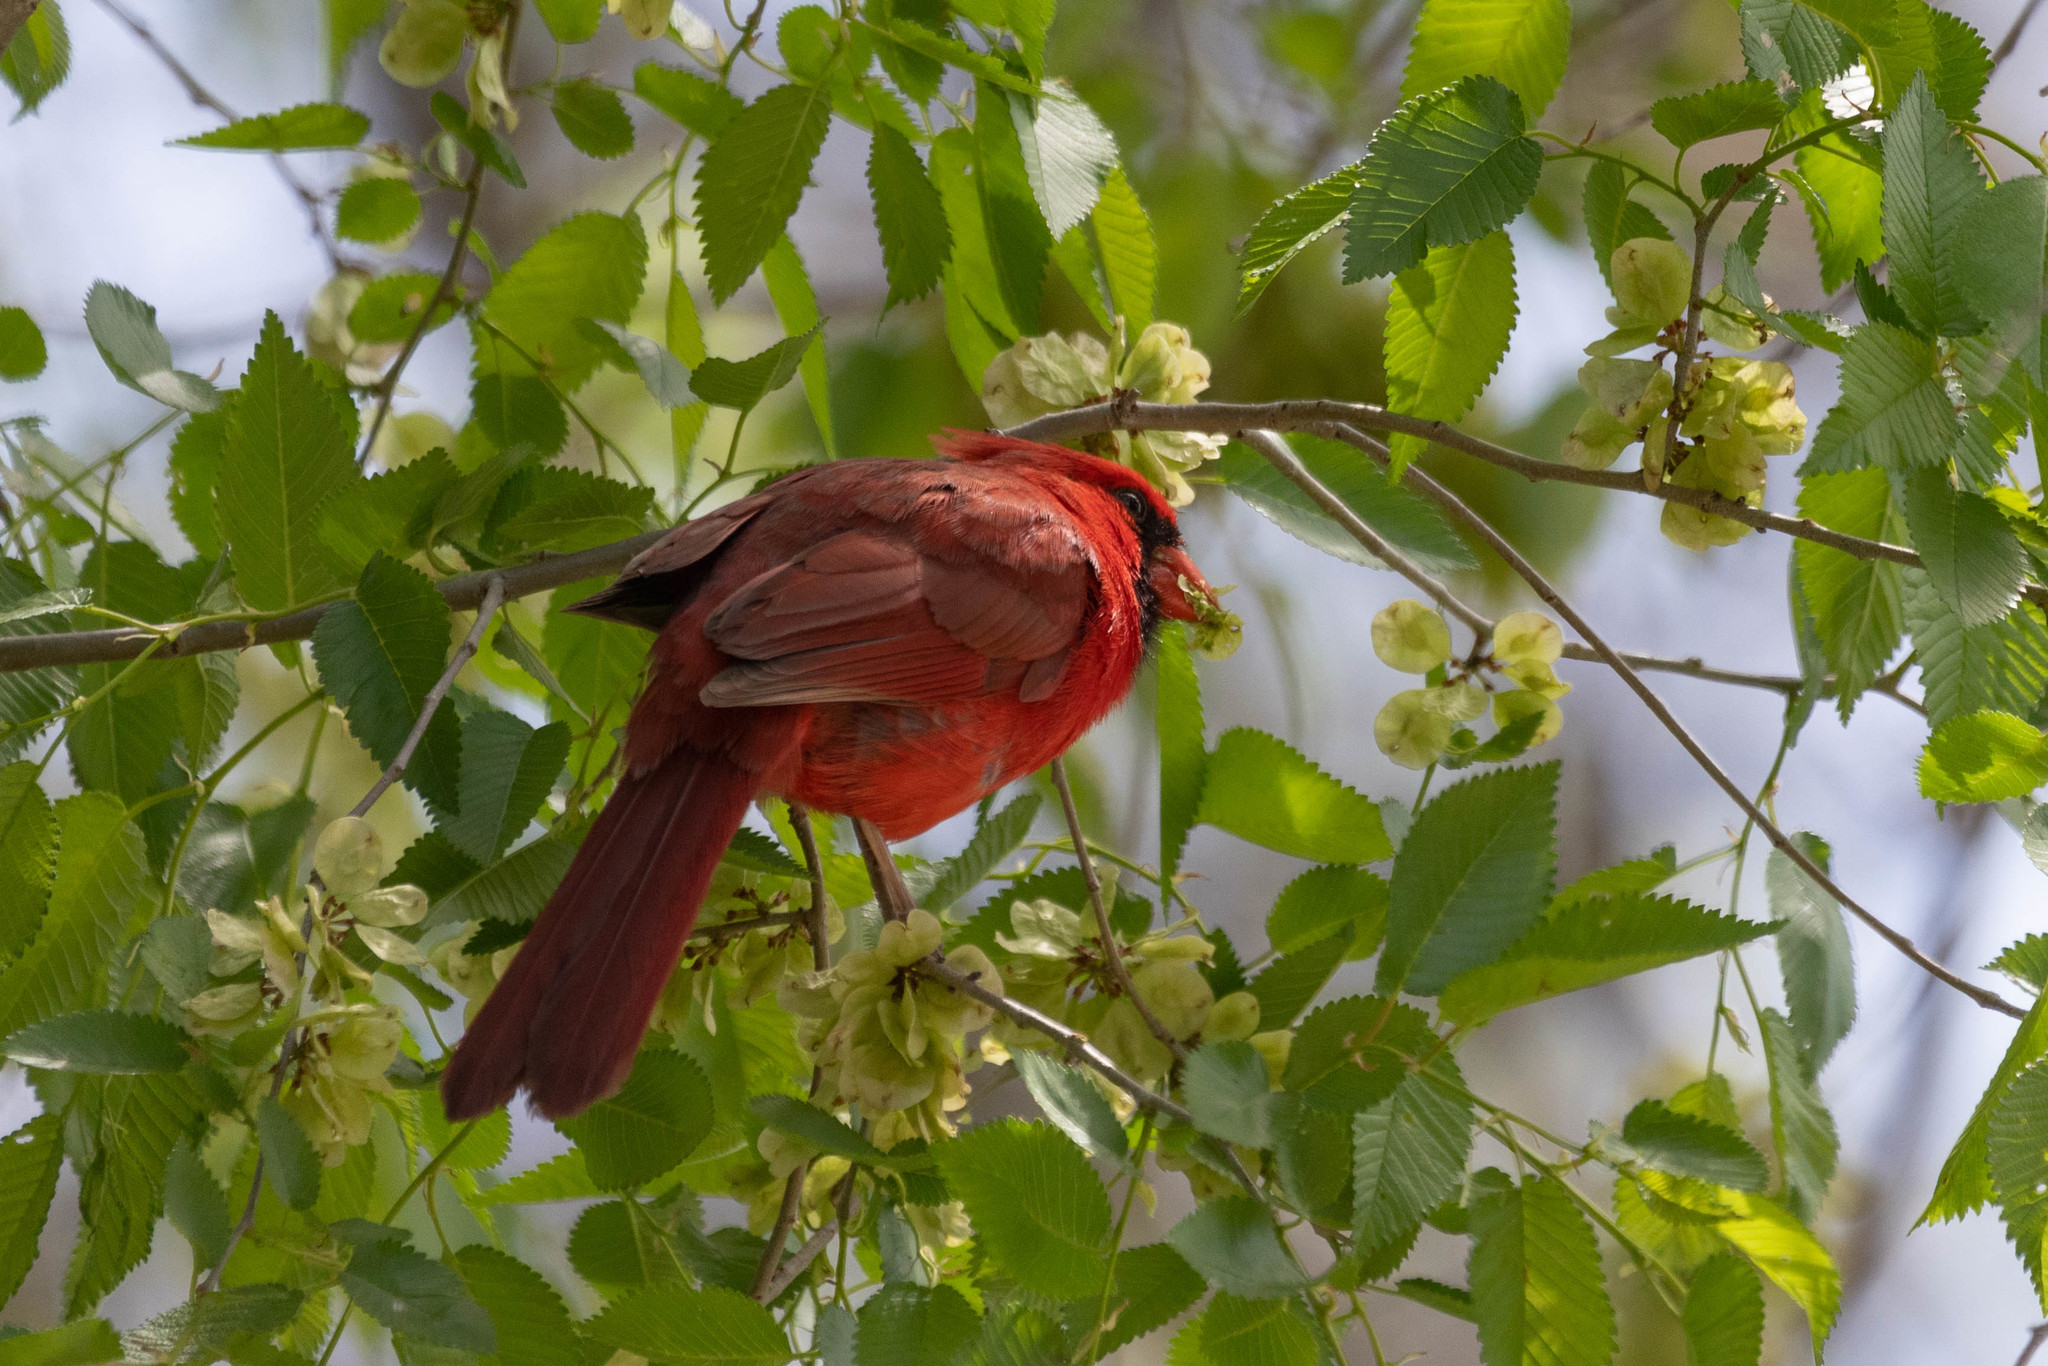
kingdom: Animalia
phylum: Chordata
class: Aves
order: Passeriformes
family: Cardinalidae
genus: Cardinalis
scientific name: Cardinalis cardinalis
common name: Northern cardinal
